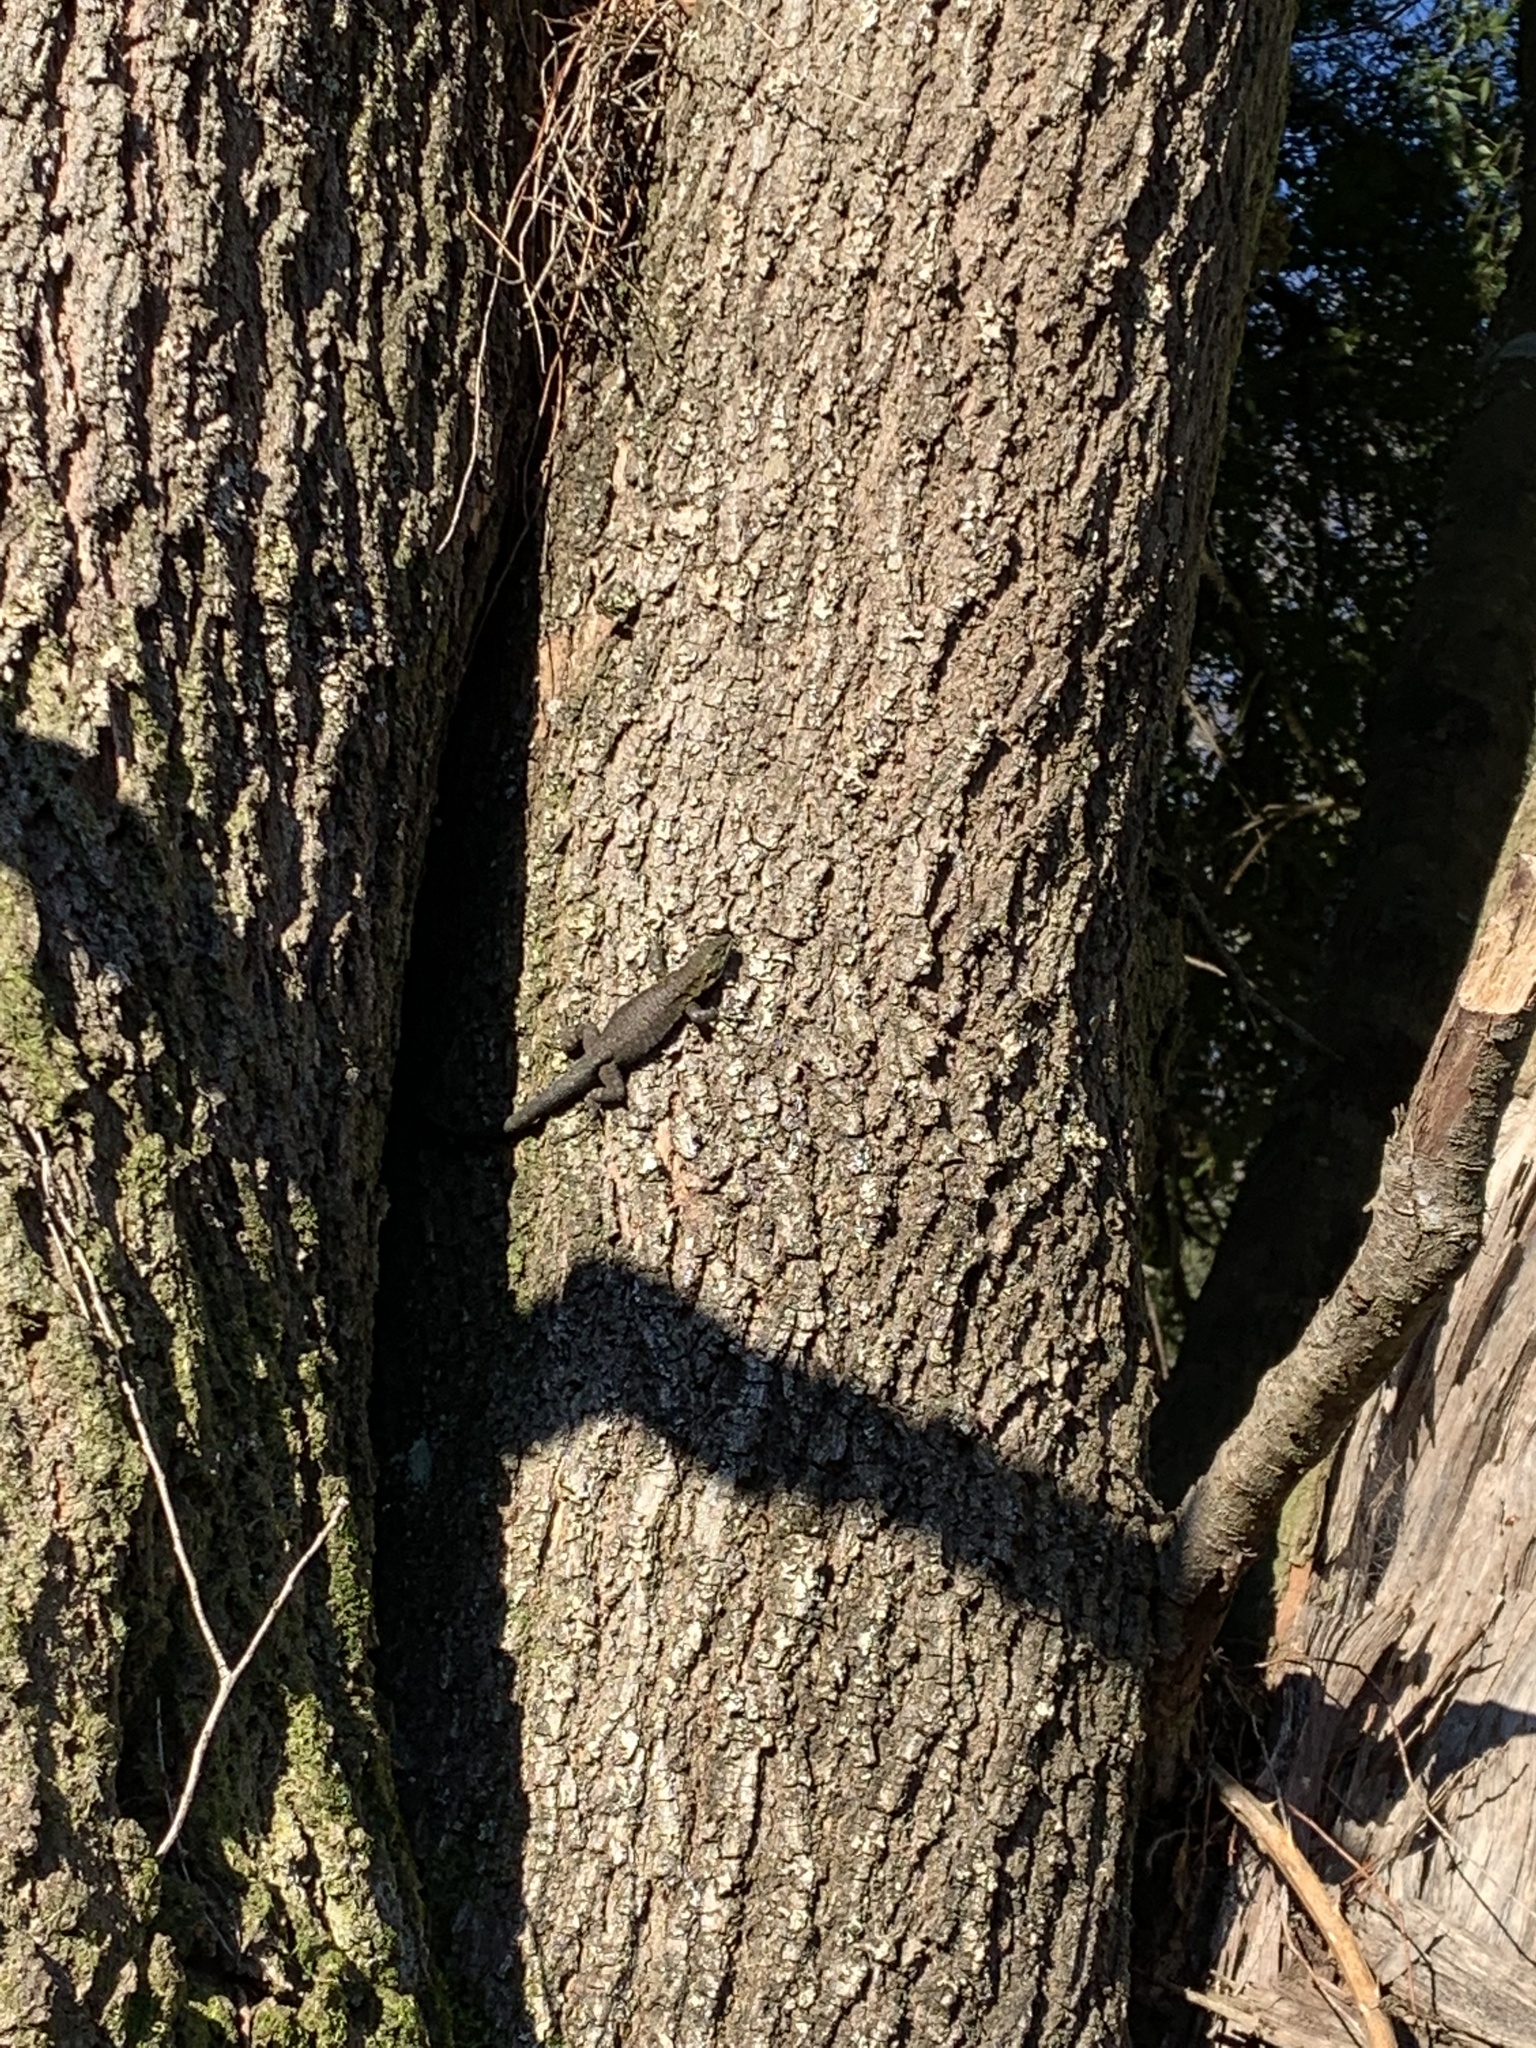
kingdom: Animalia
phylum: Chordata
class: Squamata
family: Liolaemidae
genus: Liolaemus
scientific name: Liolaemus tenuis
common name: Thin tree iguana
